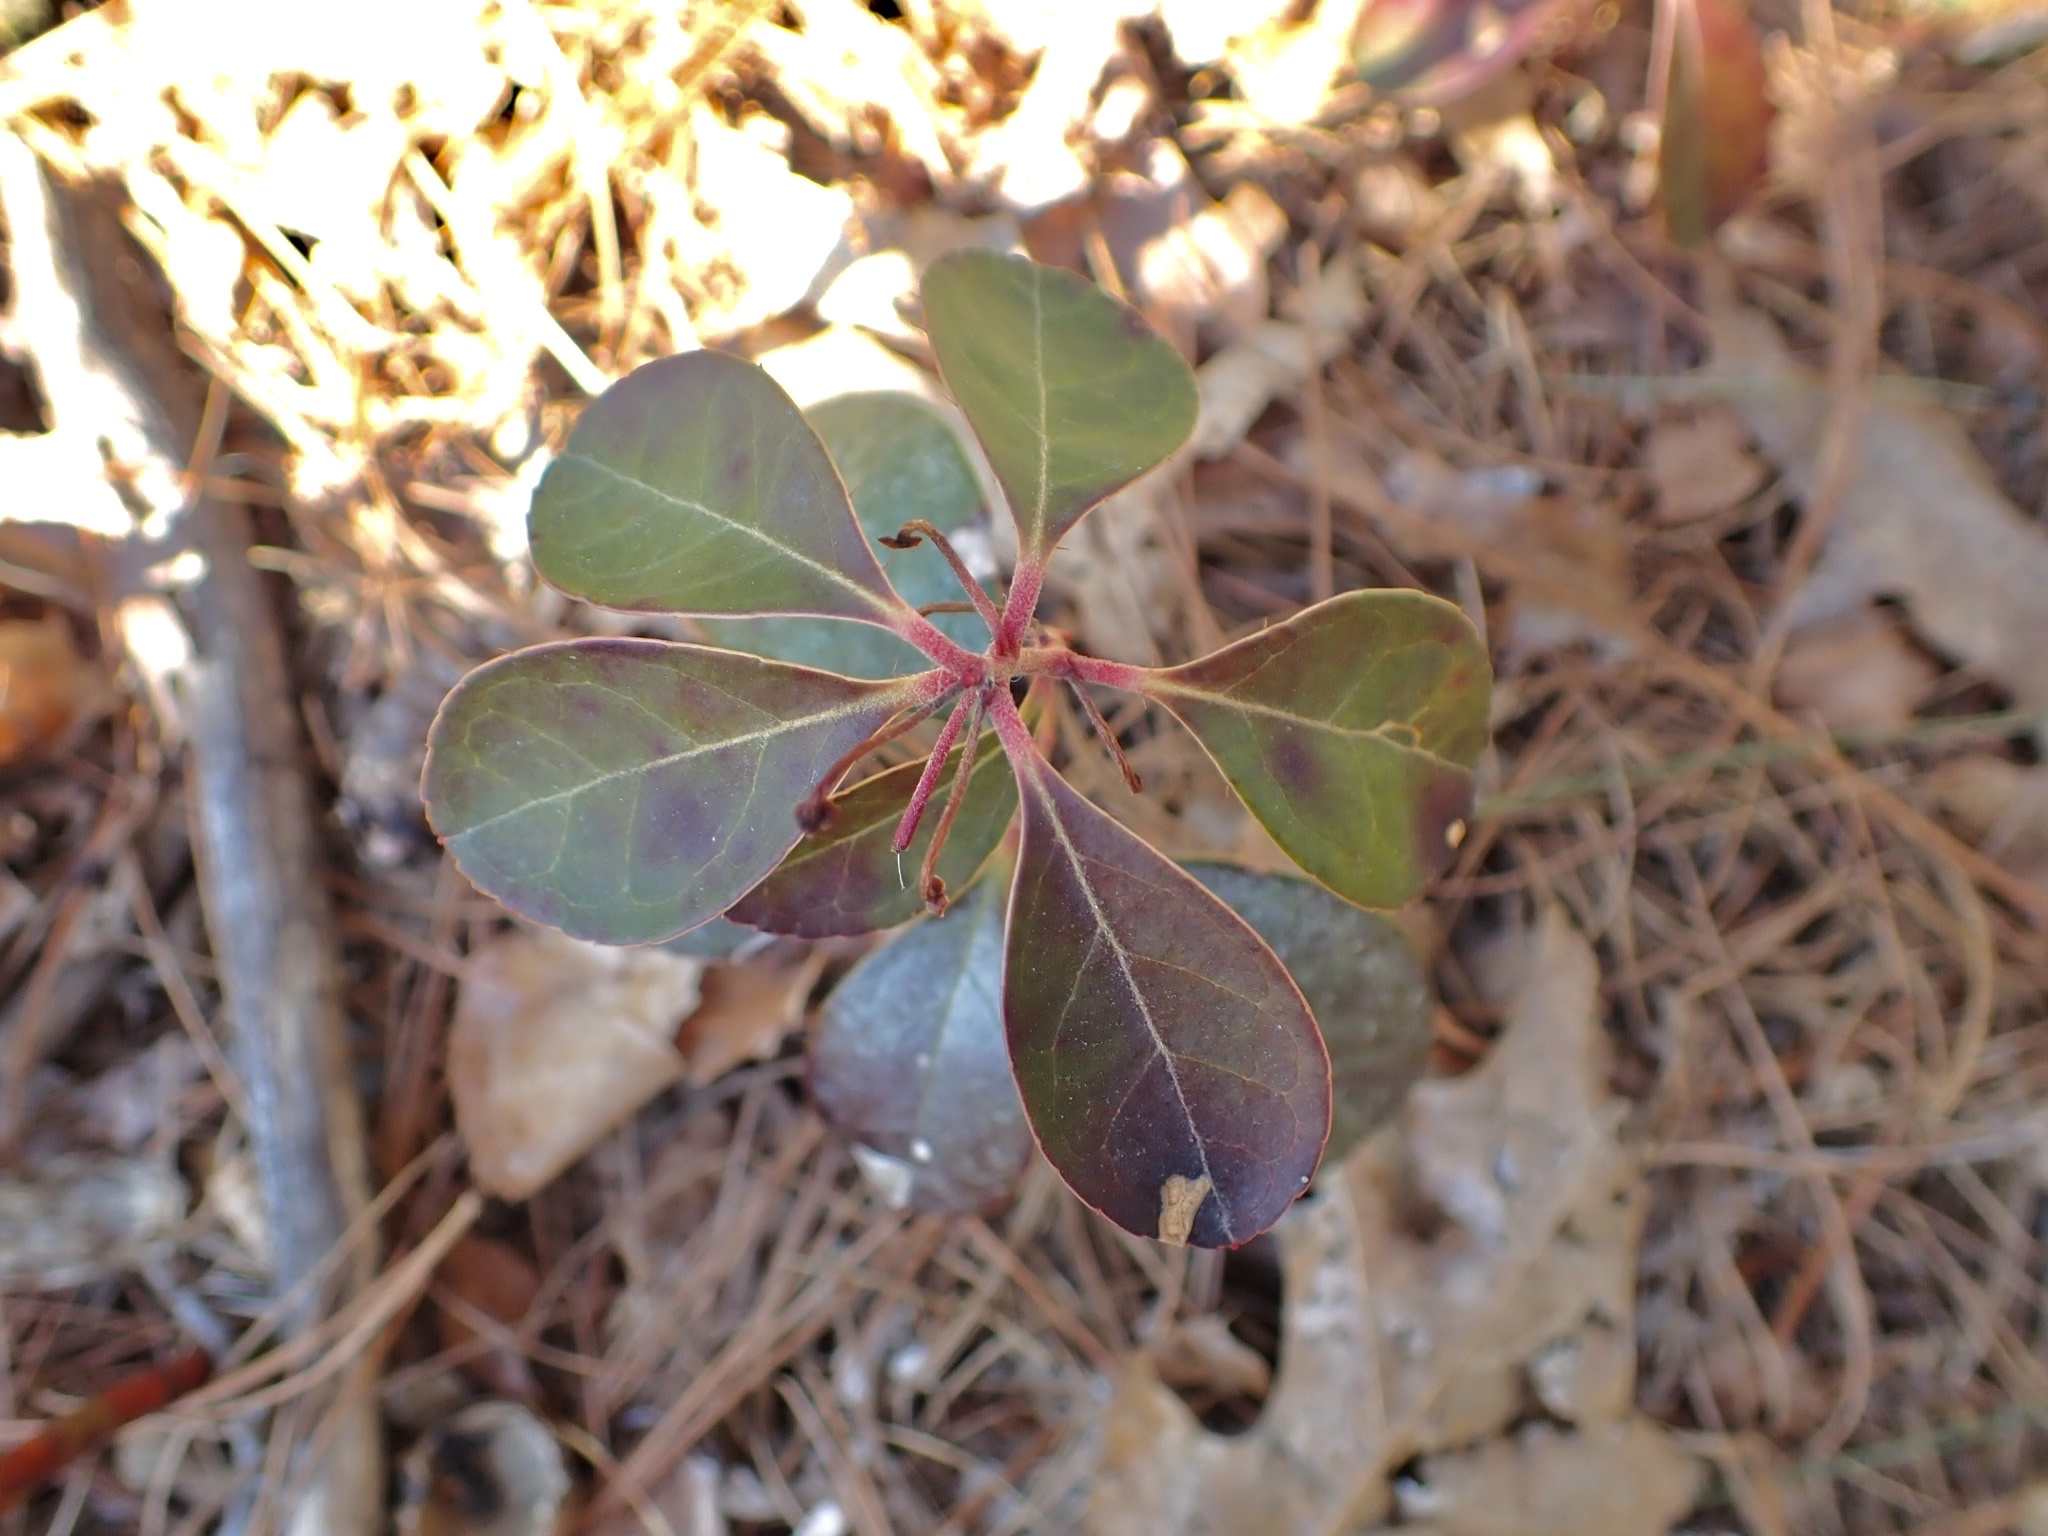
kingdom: Plantae
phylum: Tracheophyta
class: Magnoliopsida
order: Ericales
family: Ericaceae
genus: Gaultheria
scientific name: Gaultheria procumbens
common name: Checkerberry
